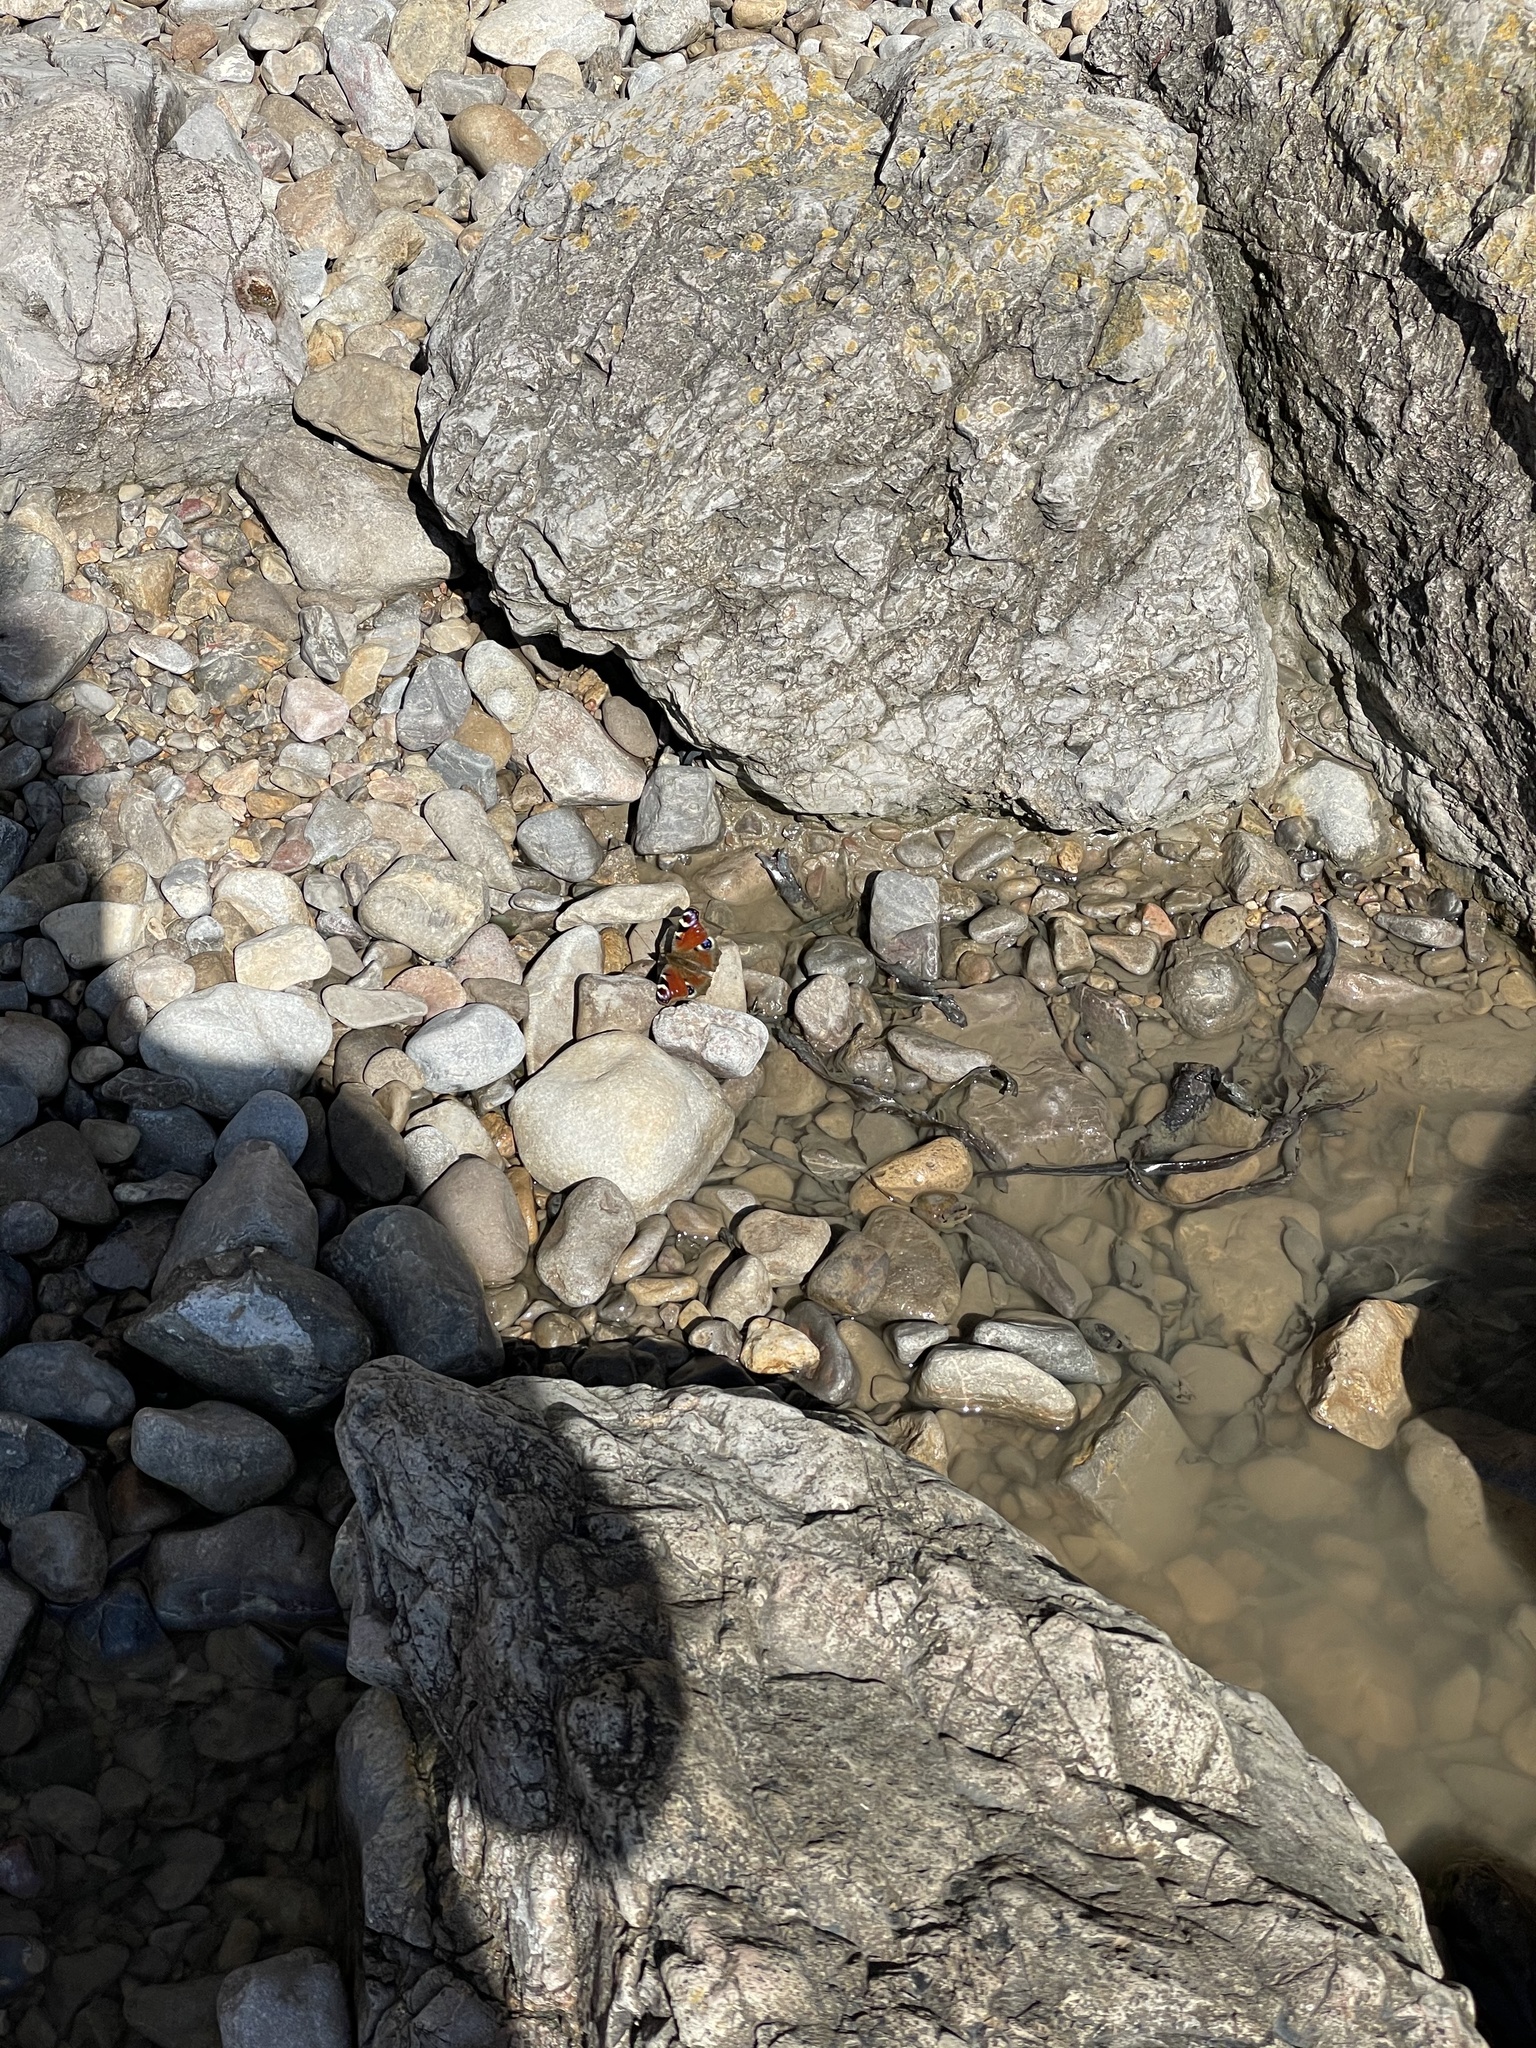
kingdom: Animalia
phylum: Arthropoda
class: Insecta
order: Lepidoptera
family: Nymphalidae
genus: Aglais
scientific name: Aglais io
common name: Peacock
